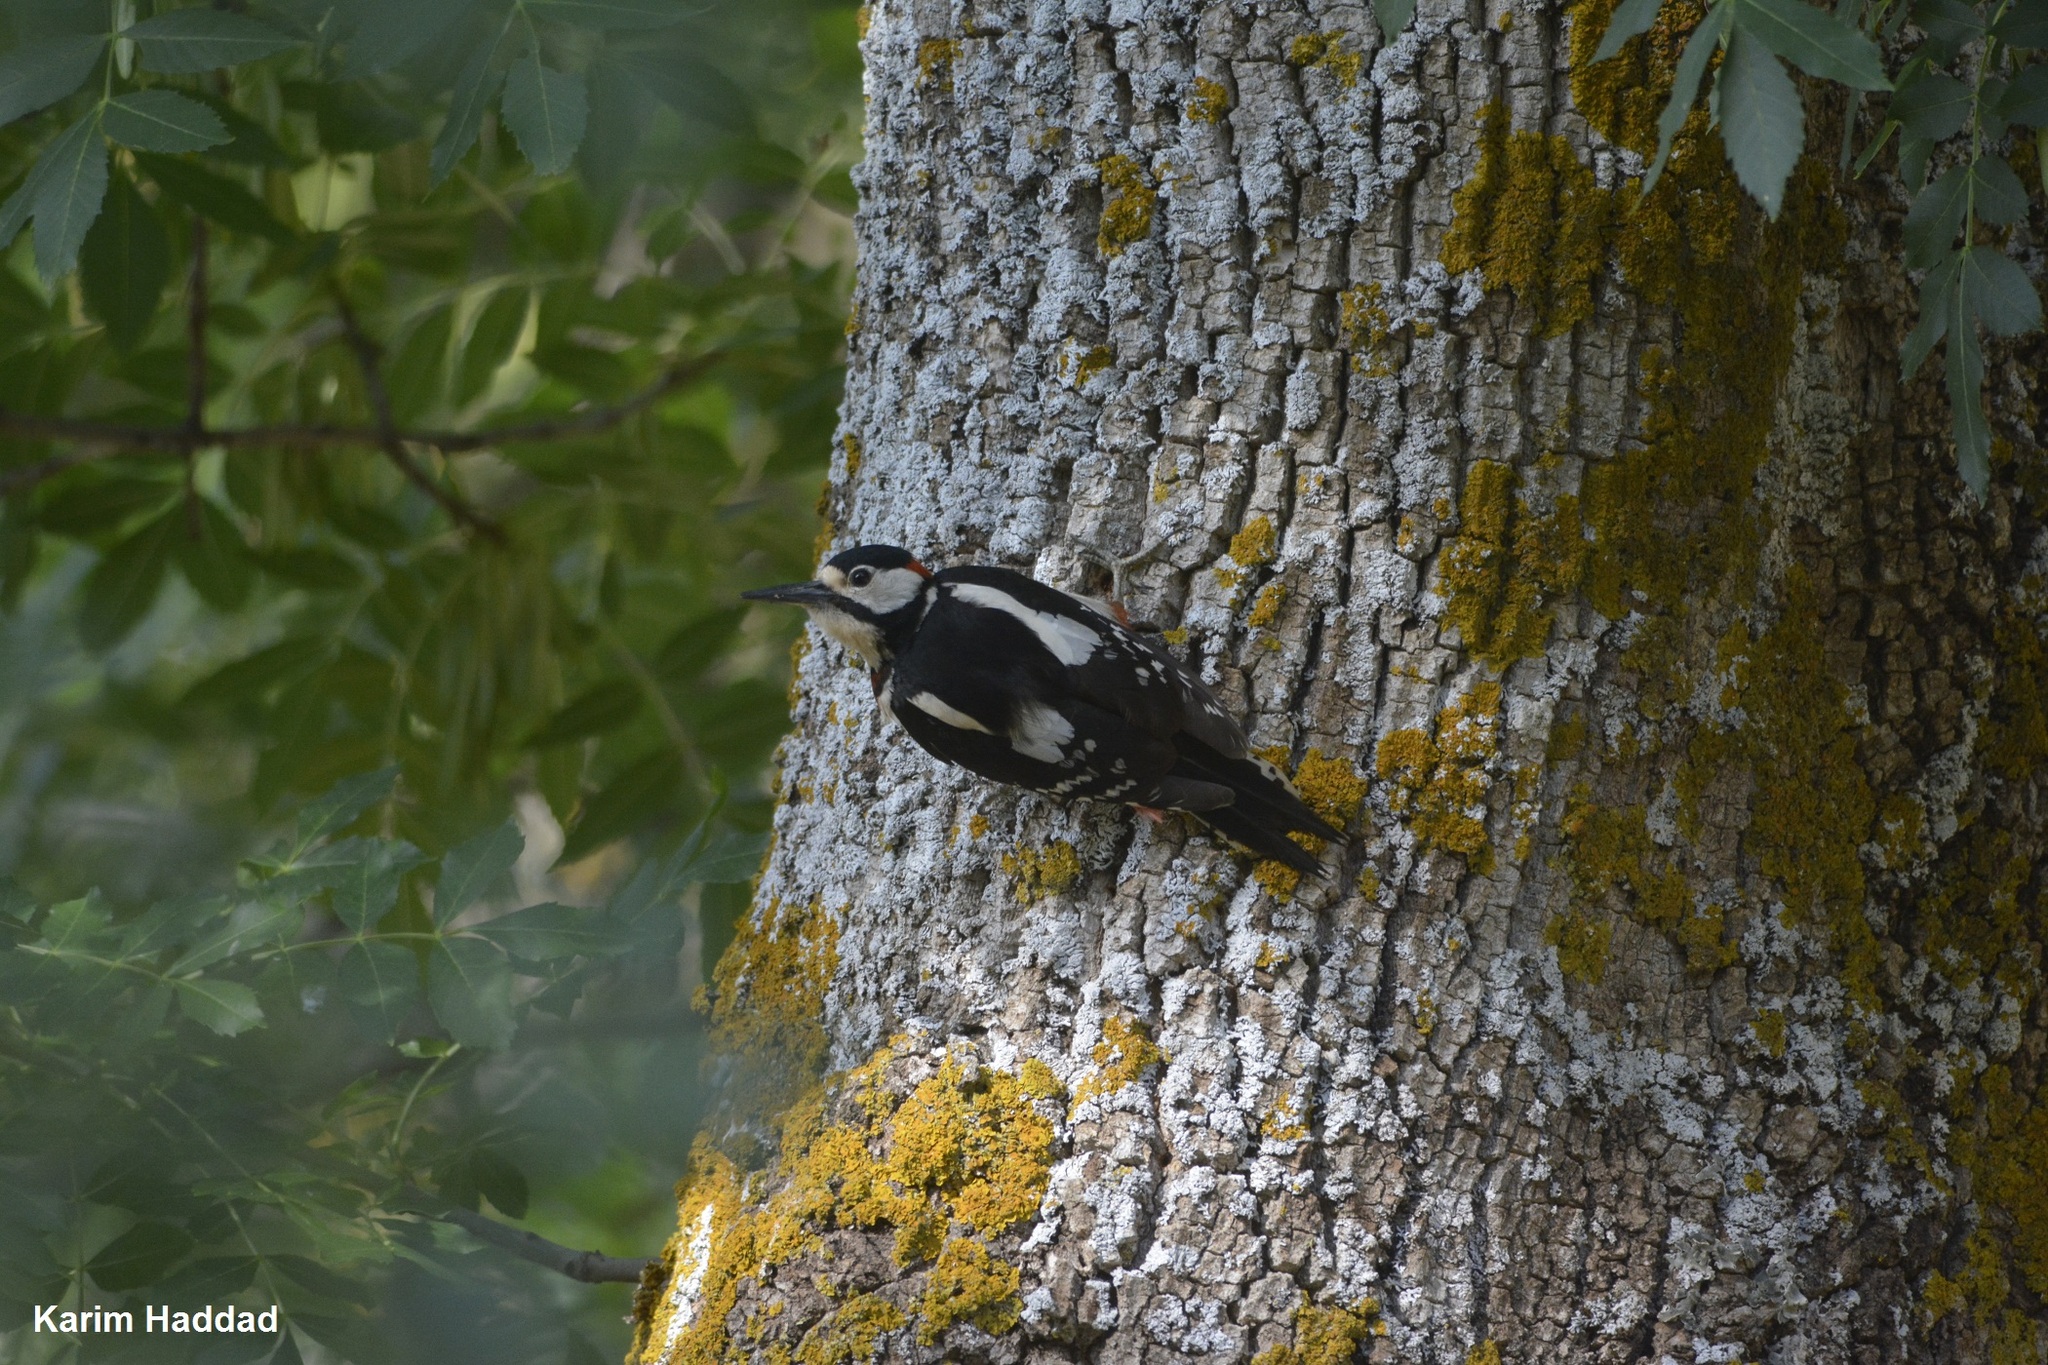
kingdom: Animalia
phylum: Chordata
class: Aves
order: Piciformes
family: Picidae
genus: Dendrocopos
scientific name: Dendrocopos major
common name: Great spotted woodpecker
